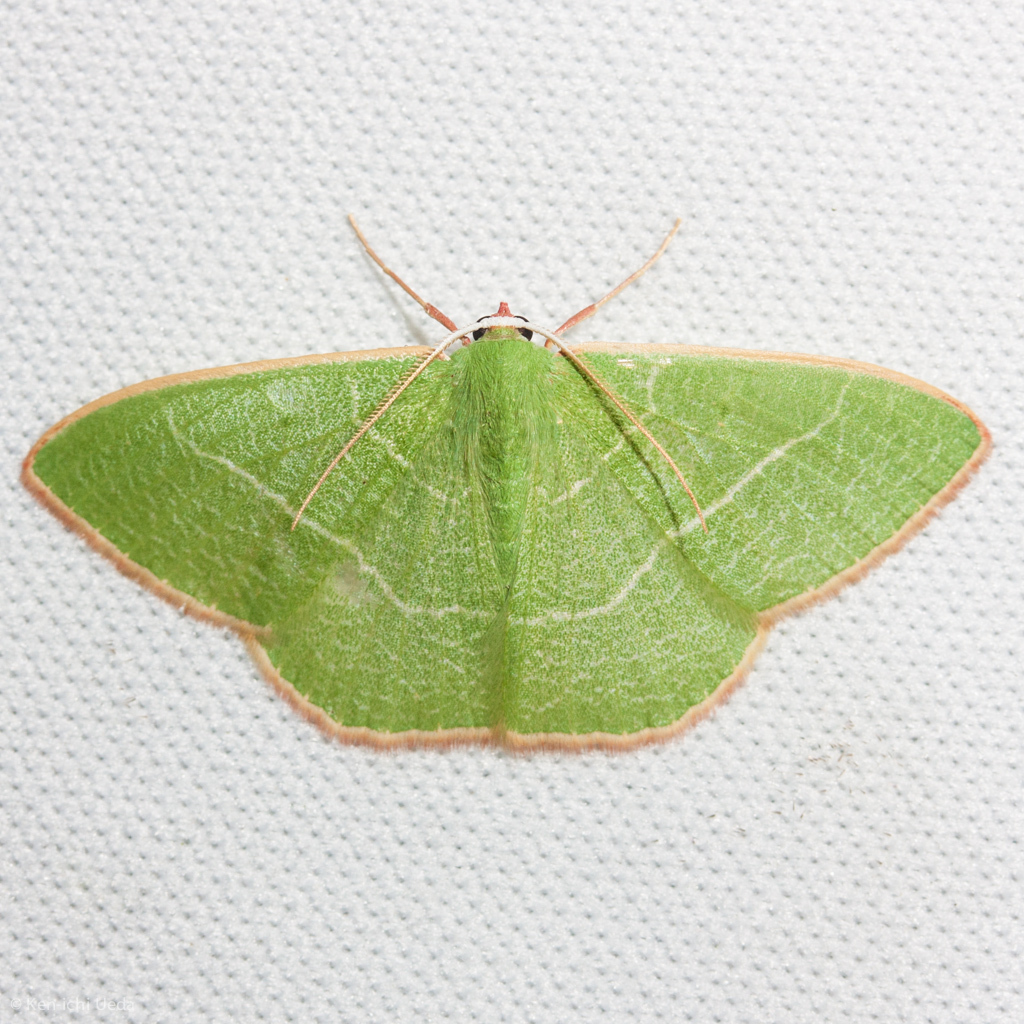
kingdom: Animalia
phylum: Arthropoda
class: Insecta
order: Lepidoptera
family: Geometridae
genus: Nemoria
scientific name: Nemoria leptalea
